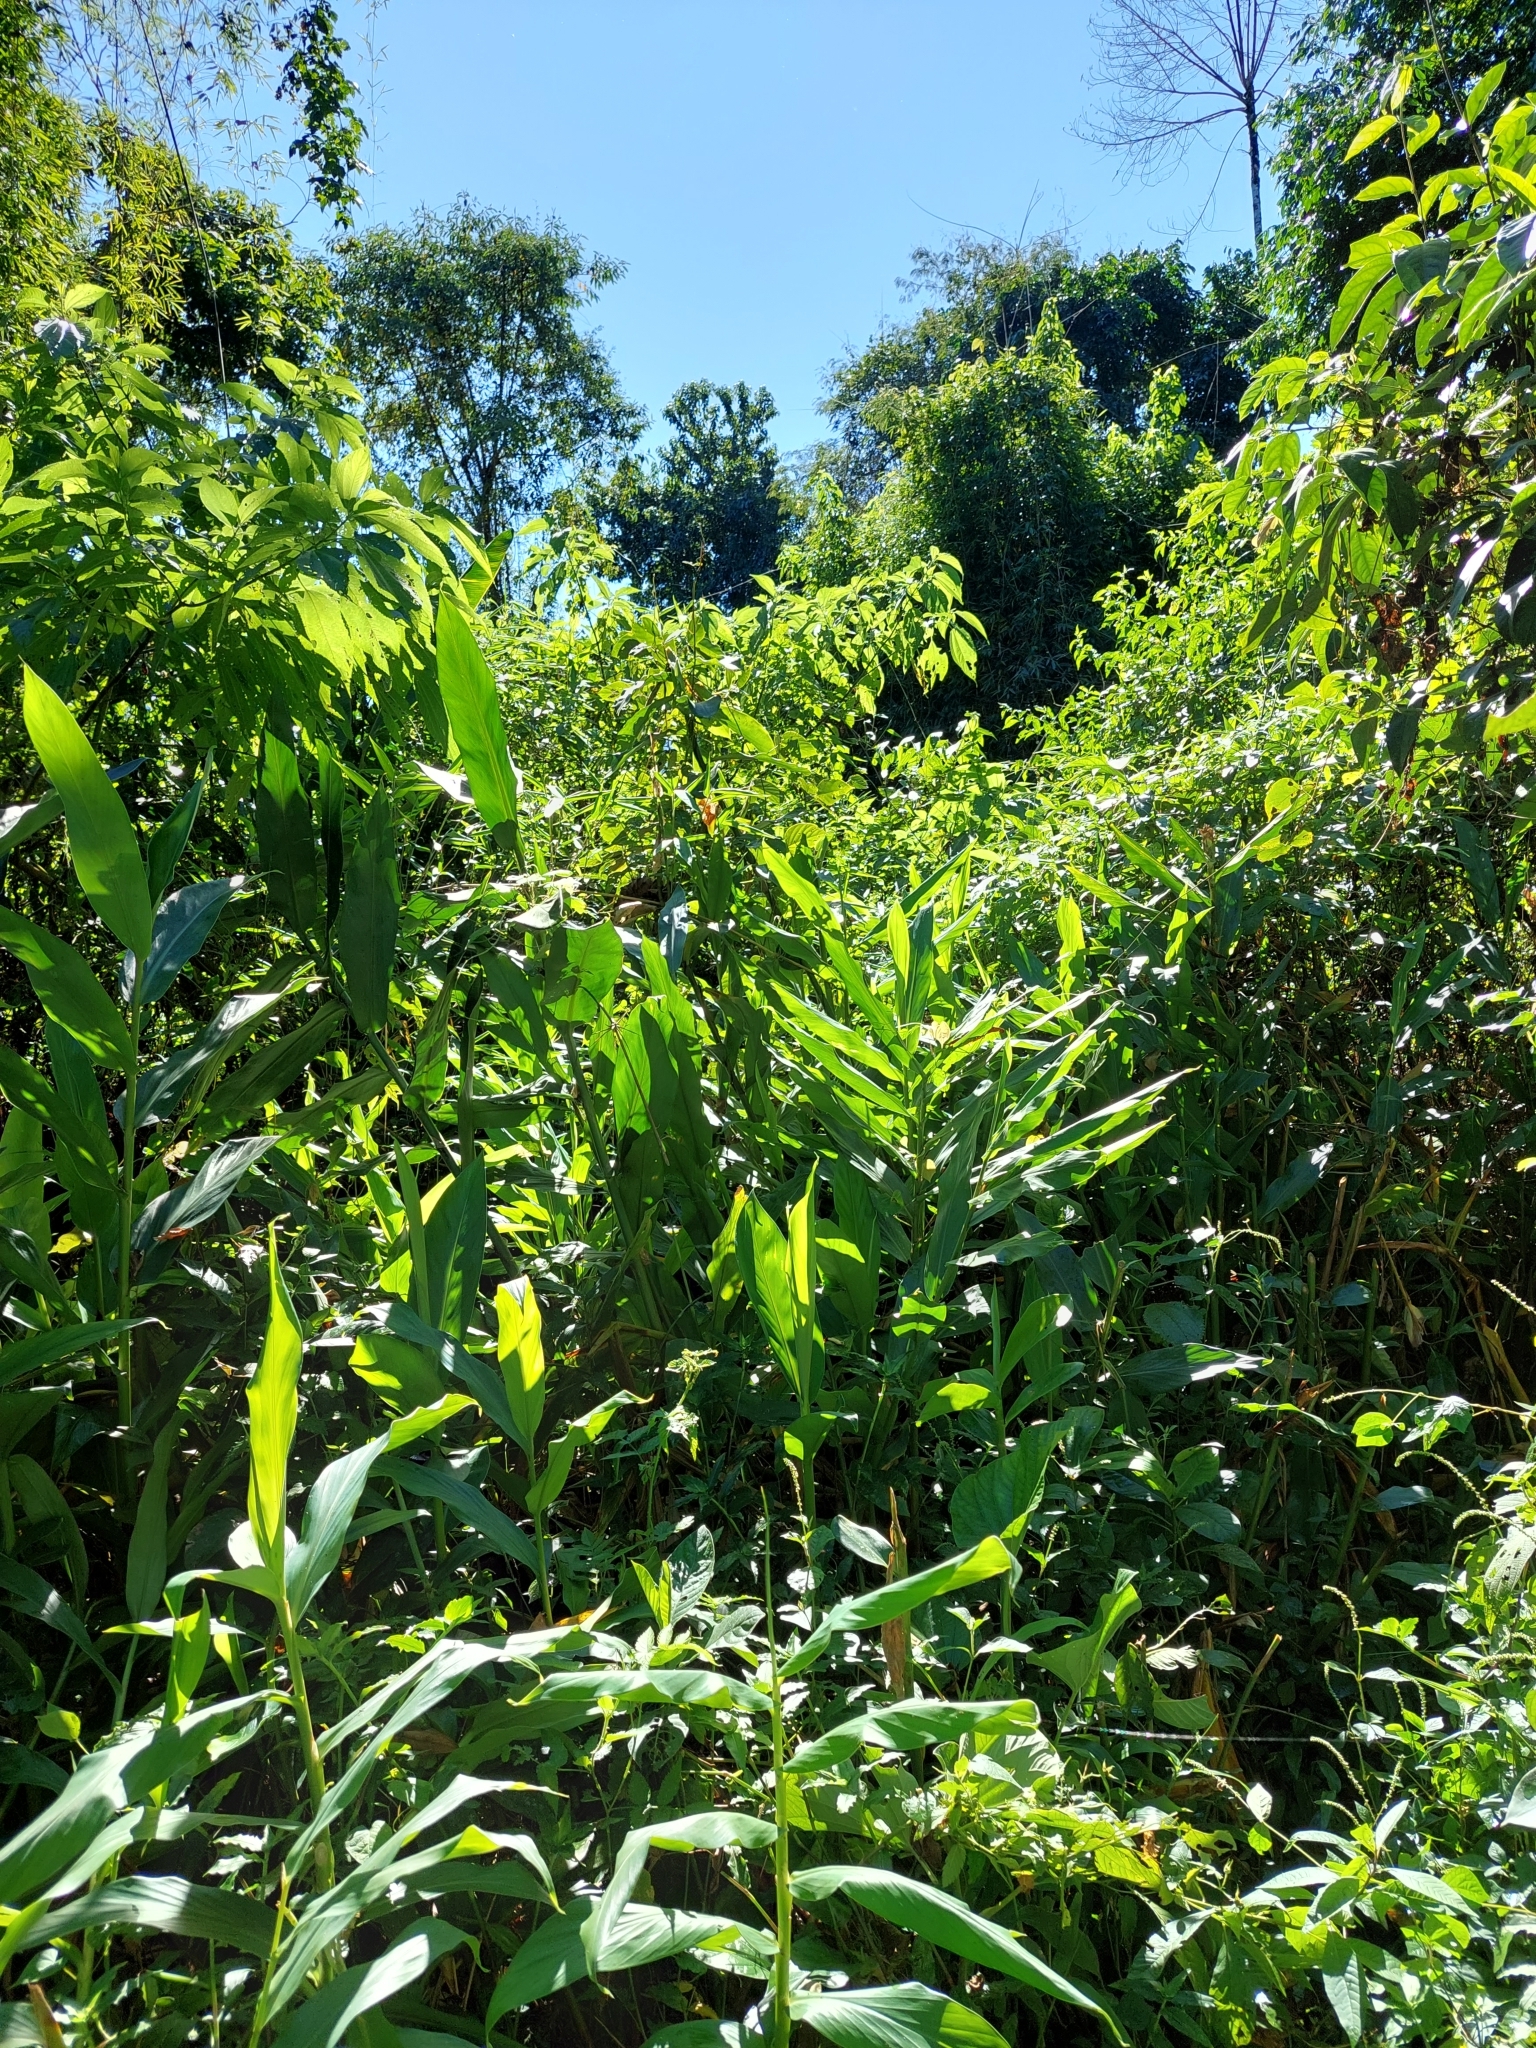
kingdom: Plantae
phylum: Tracheophyta
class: Liliopsida
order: Zingiberales
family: Zingiberaceae
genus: Hedychium
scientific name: Hedychium coronarium
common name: White garland-lily
